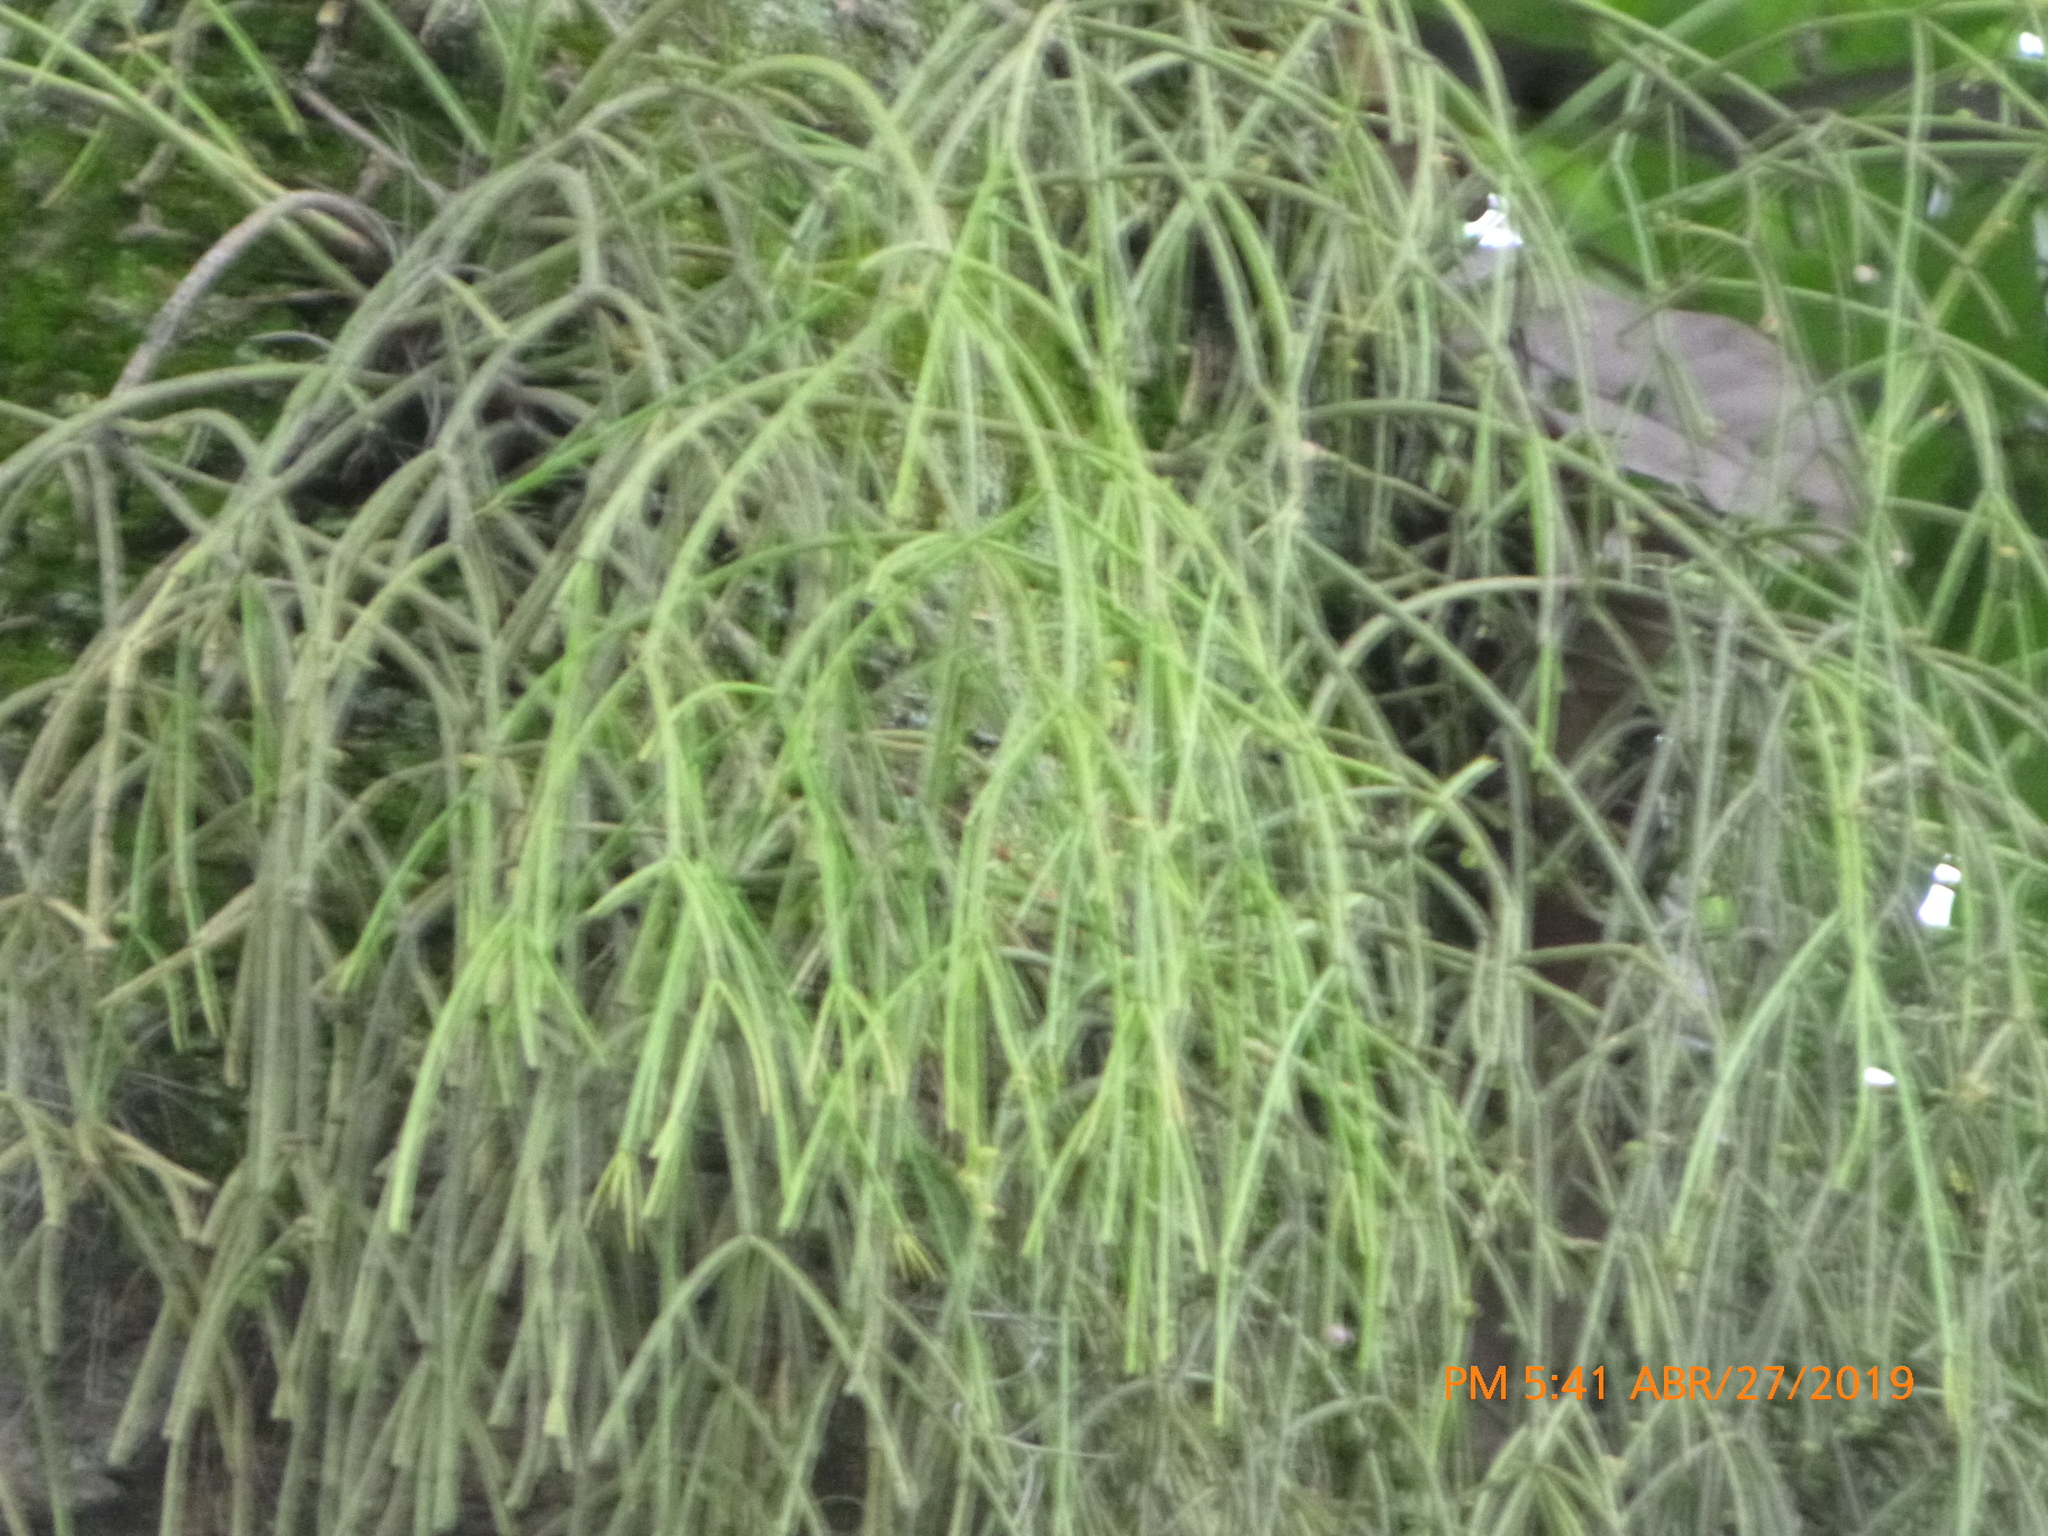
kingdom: Plantae
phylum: Tracheophyta
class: Magnoliopsida
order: Caryophyllales
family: Cactaceae
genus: Rhipsalis
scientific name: Rhipsalis baccifera
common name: Mistletoe cactus
